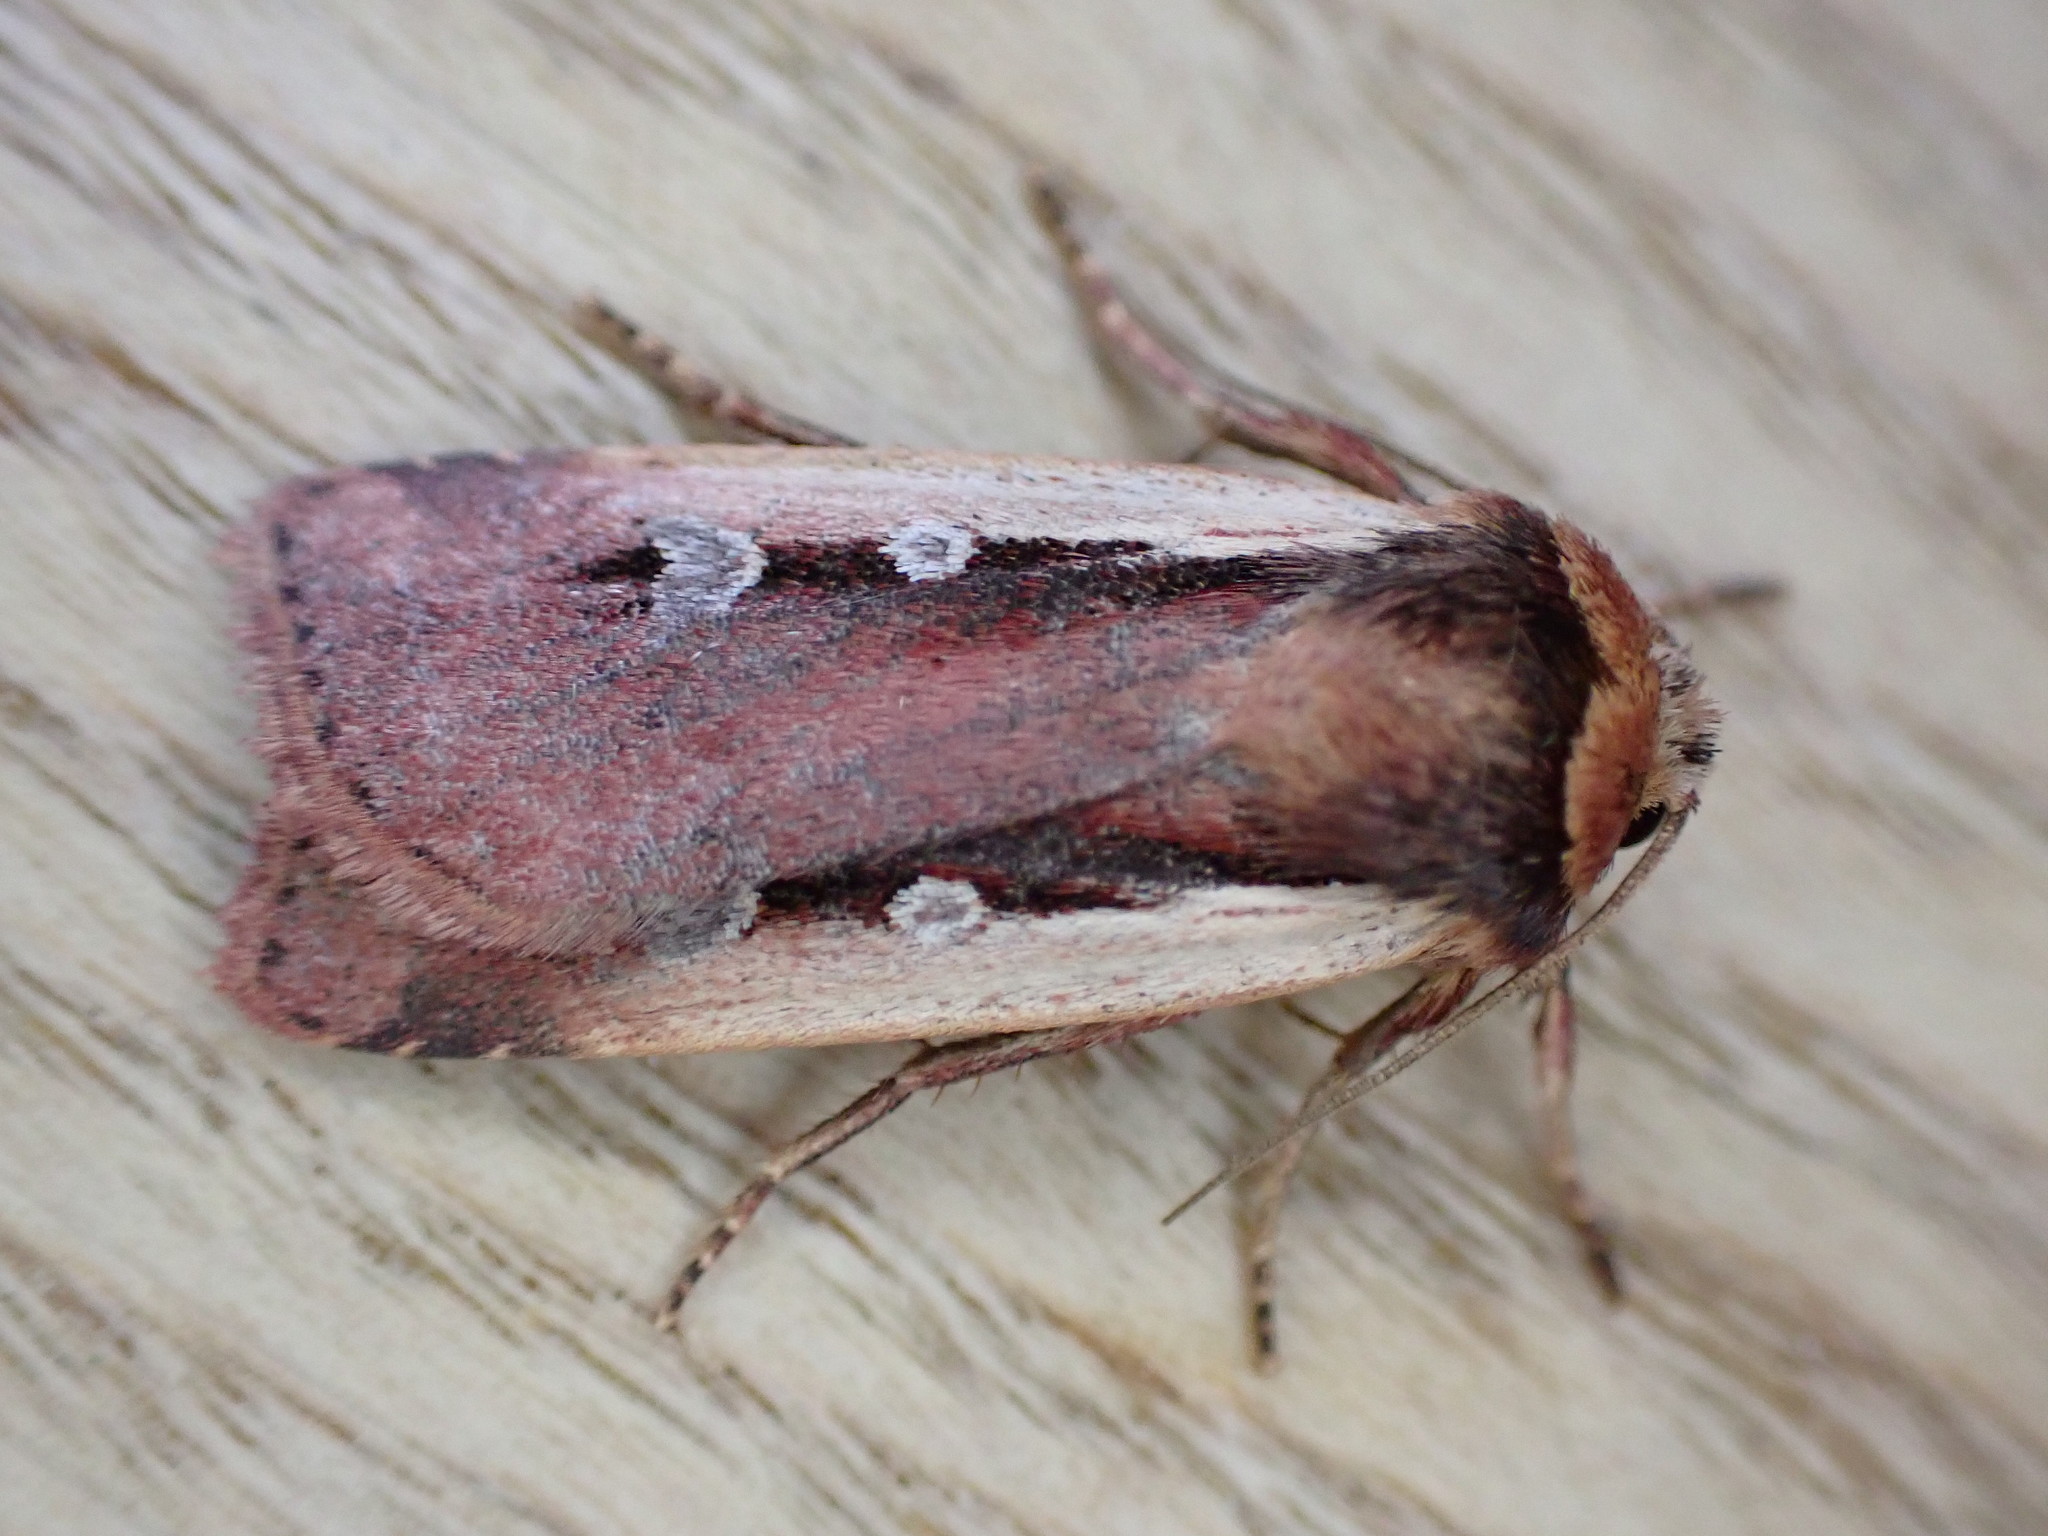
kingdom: Animalia
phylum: Arthropoda
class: Insecta
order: Lepidoptera
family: Noctuidae
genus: Ochropleura
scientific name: Ochropleura plecta
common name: Flame shoulder
